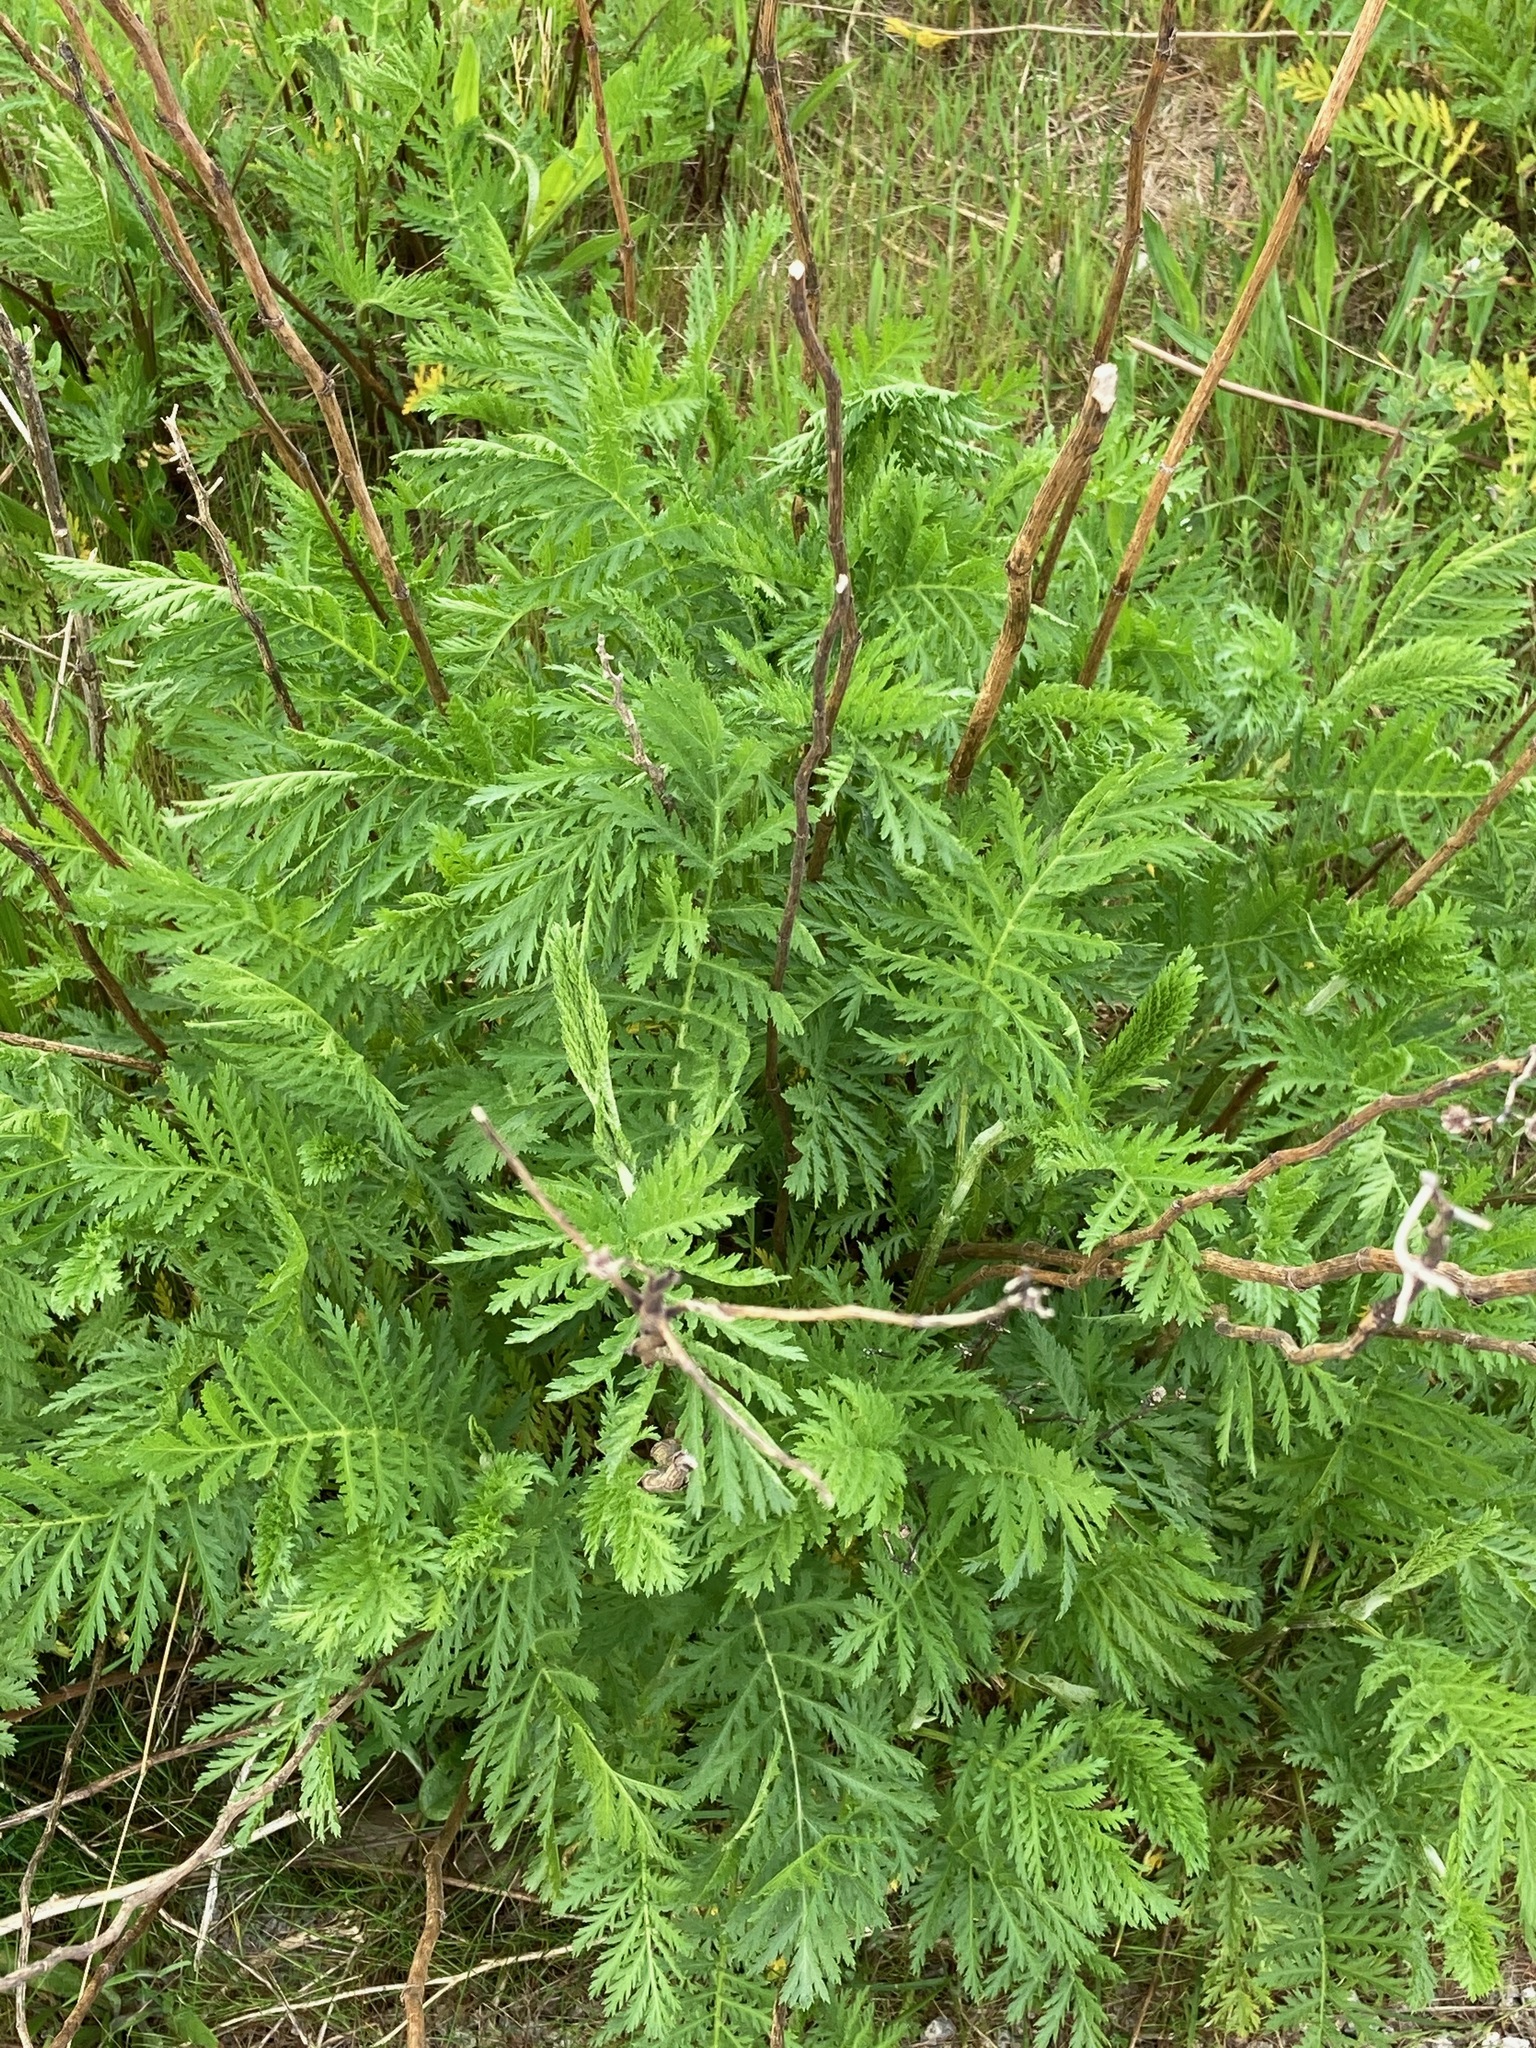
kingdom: Plantae
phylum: Tracheophyta
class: Magnoliopsida
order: Asterales
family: Asteraceae
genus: Tanacetum
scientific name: Tanacetum vulgare
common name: Common tansy
